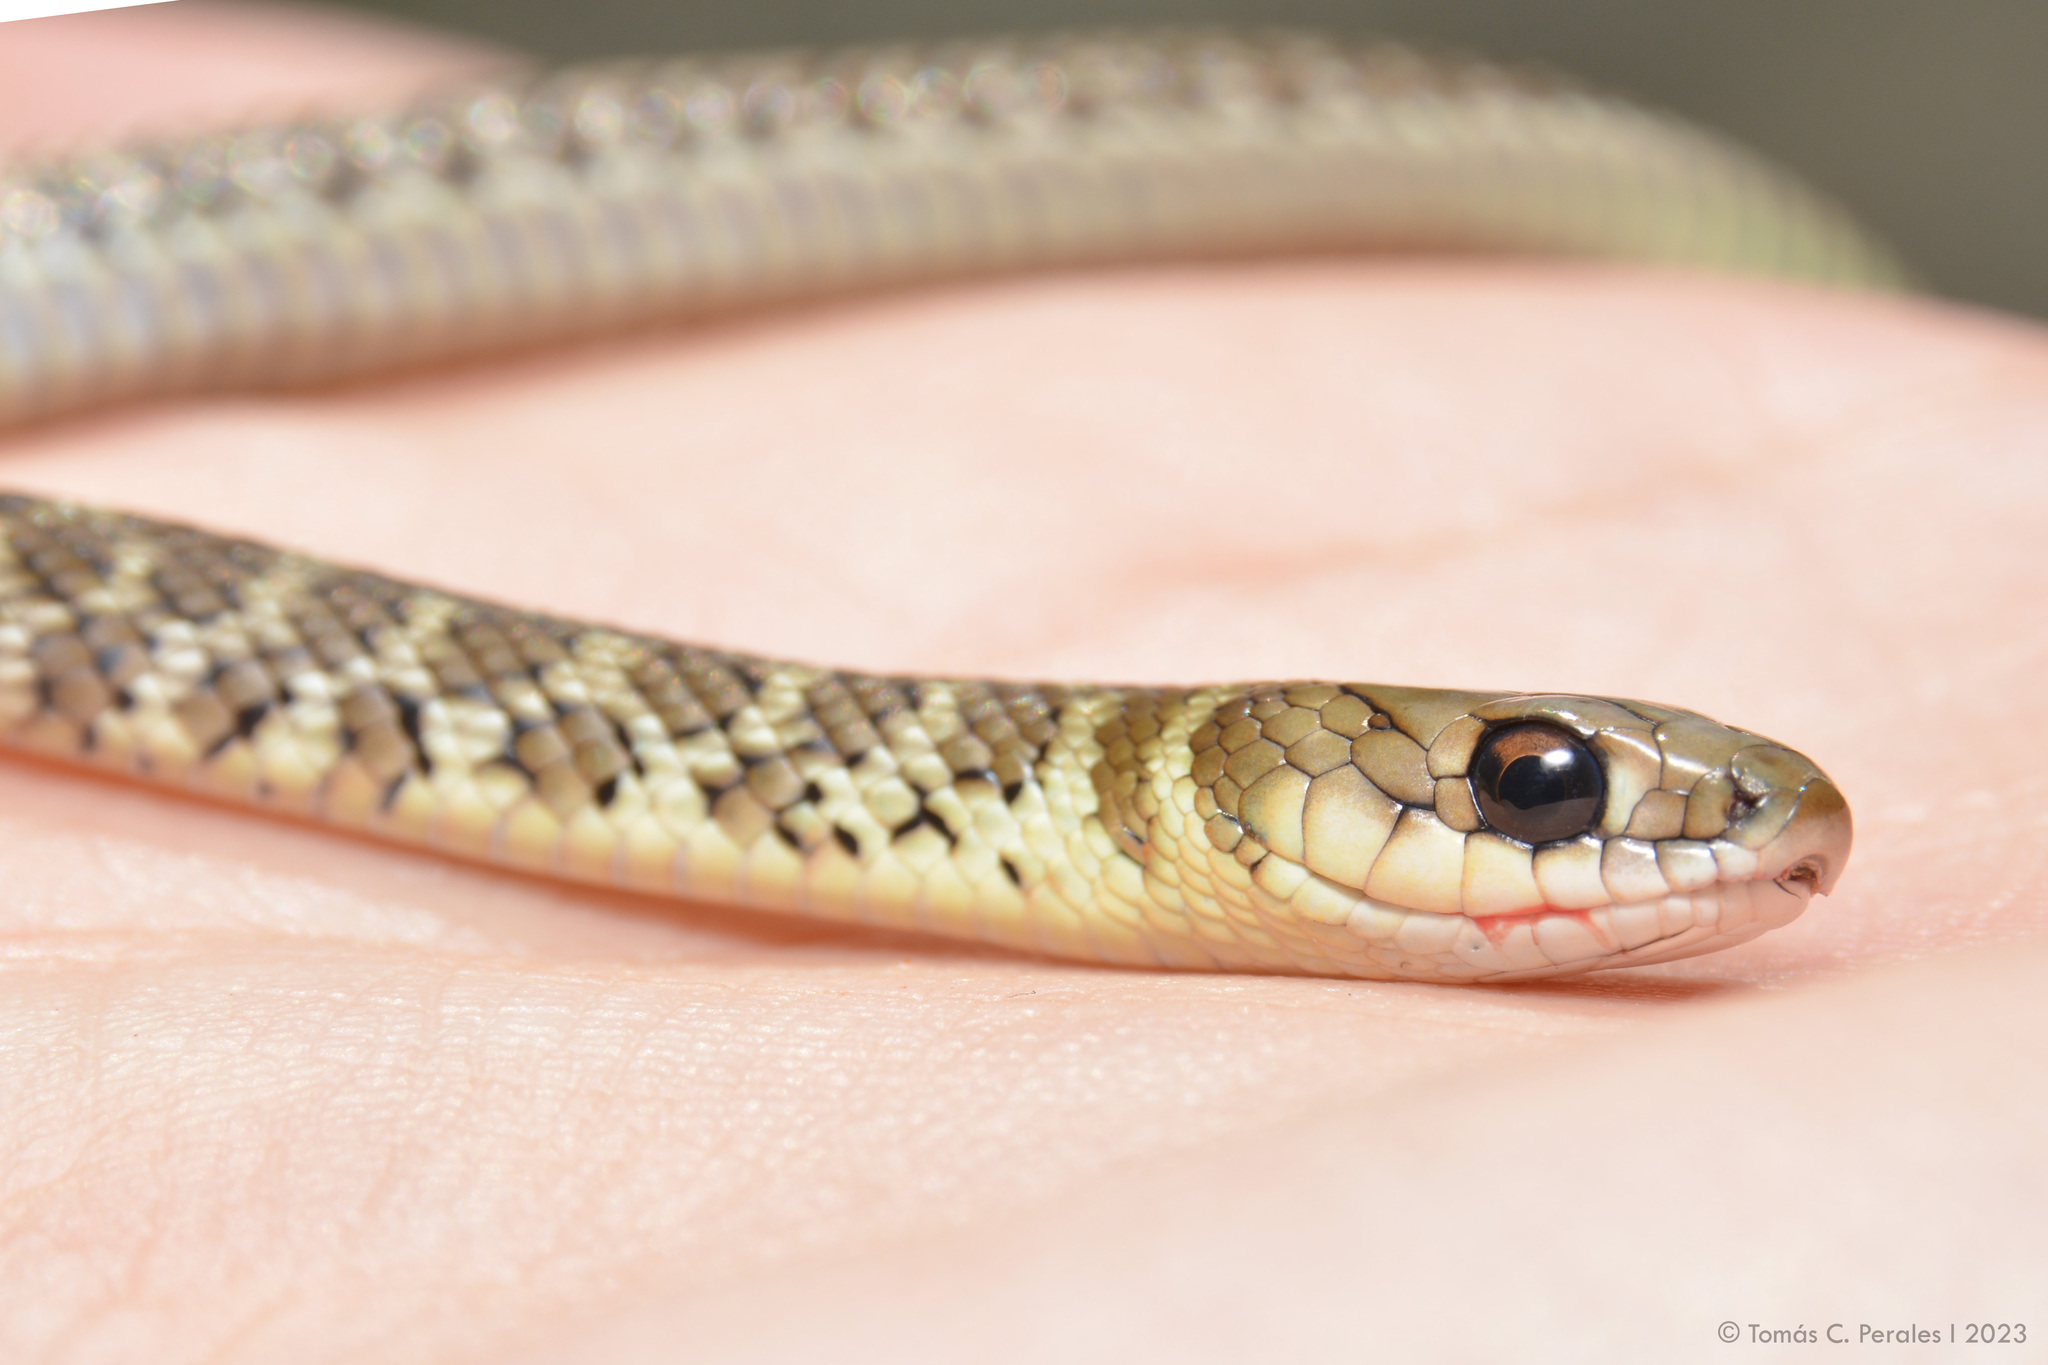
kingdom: Animalia
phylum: Chordata
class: Squamata
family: Colubridae
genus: Philodryas
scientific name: Philodryas varia
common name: Jan's green racer
